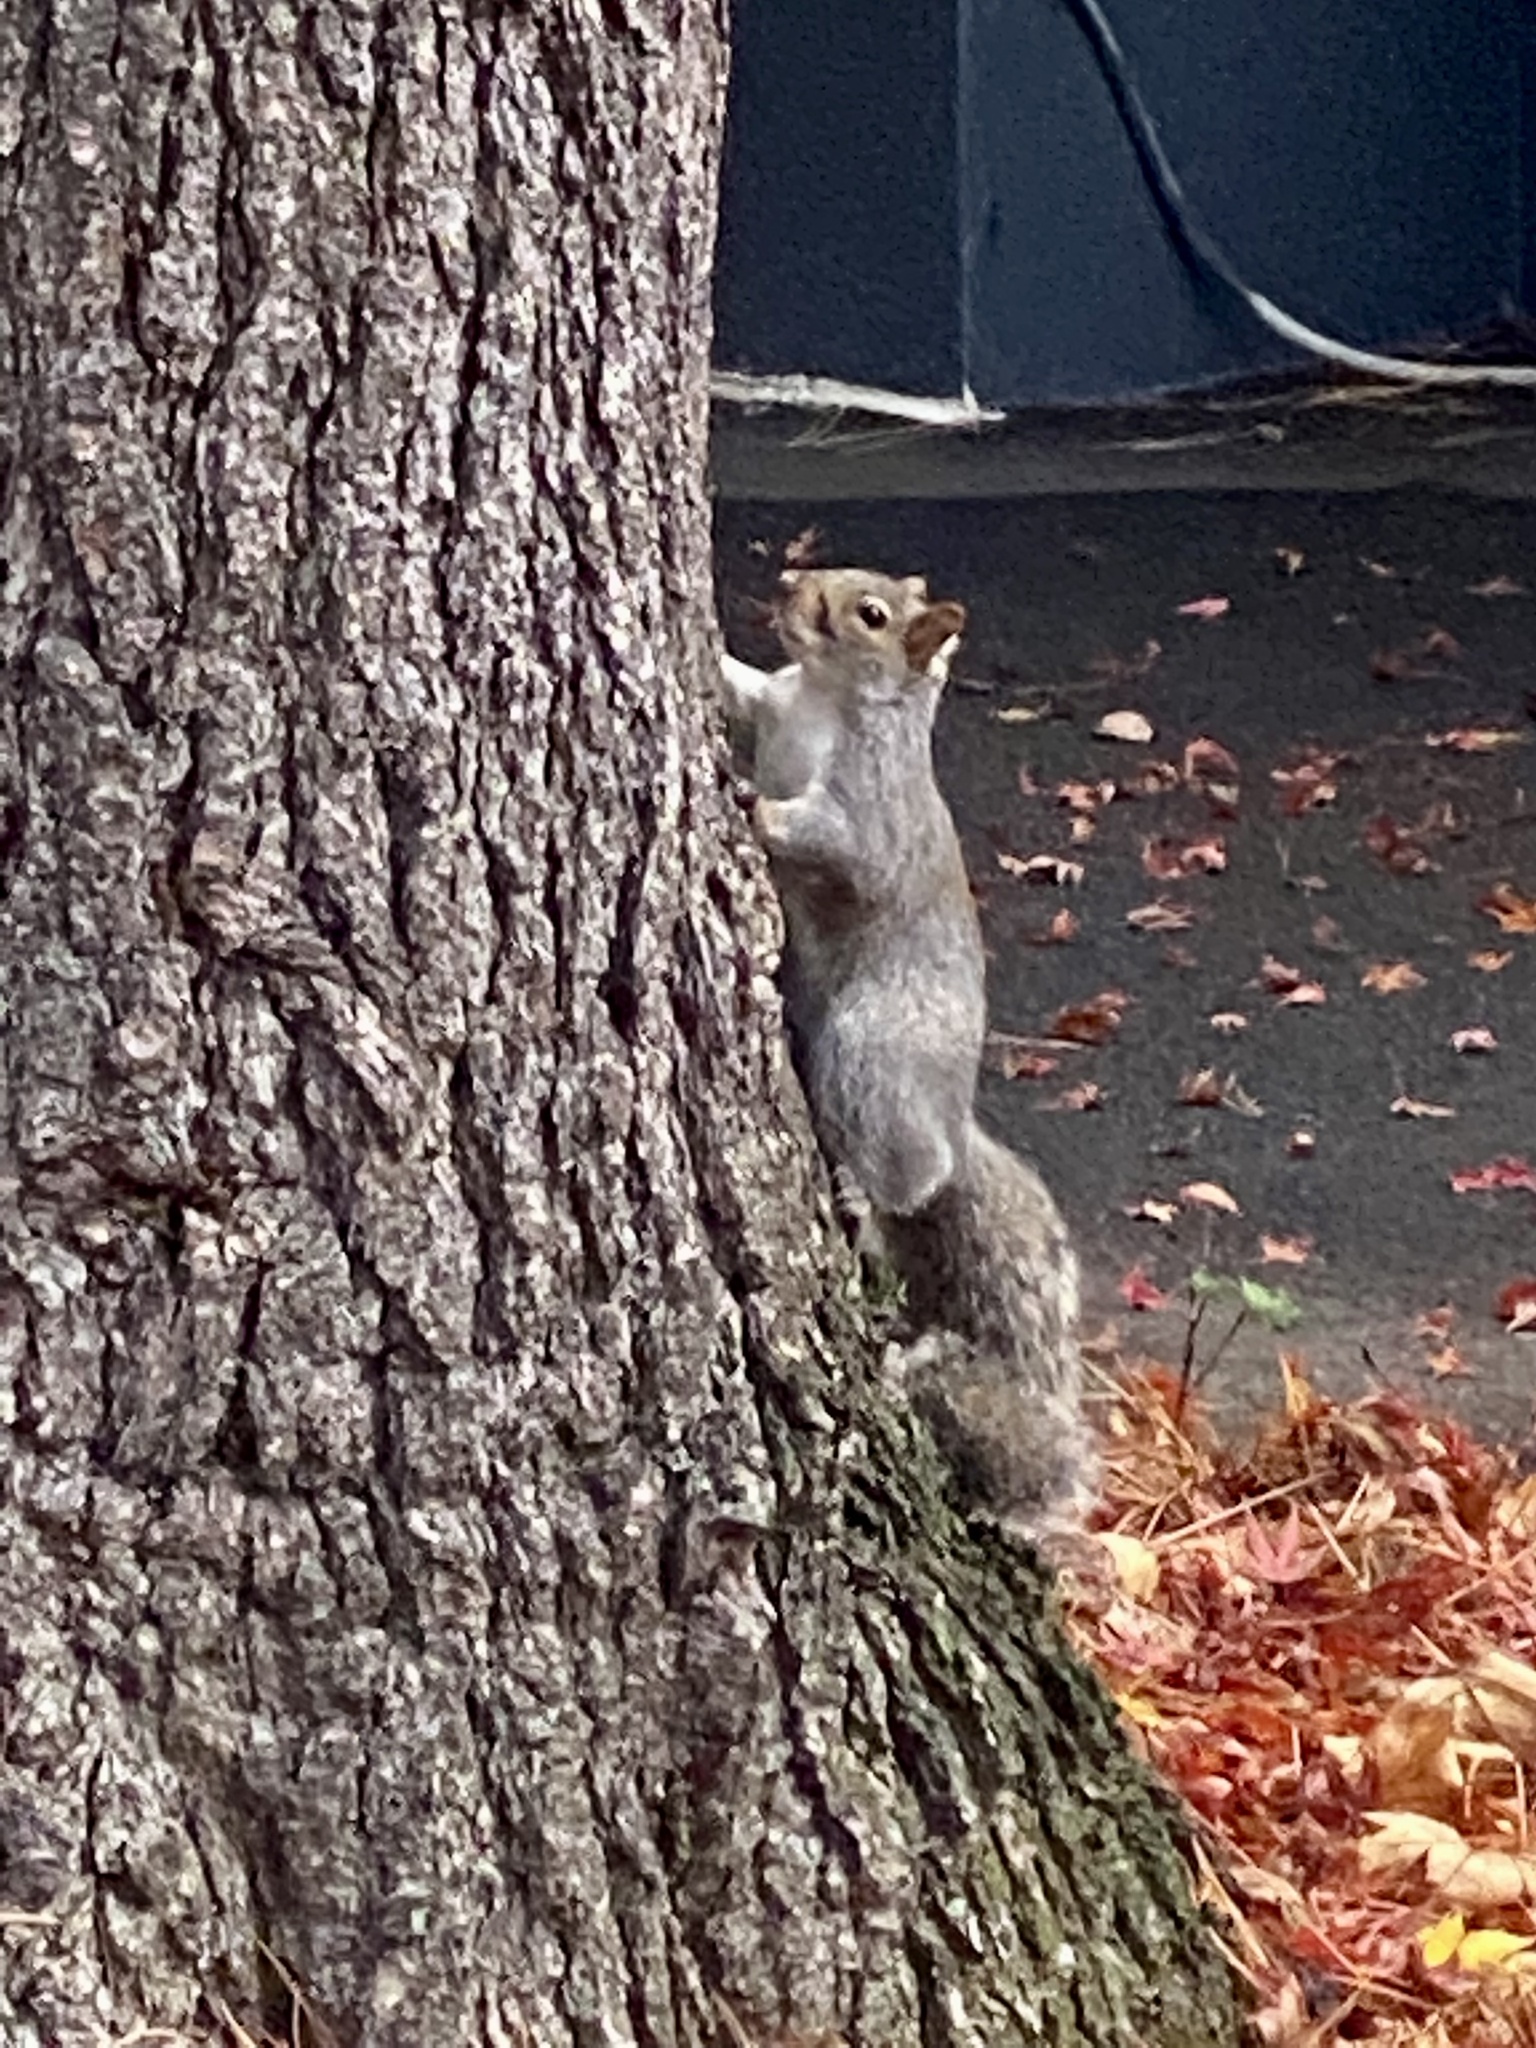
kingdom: Animalia
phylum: Chordata
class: Mammalia
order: Rodentia
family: Sciuridae
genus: Sciurus
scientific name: Sciurus carolinensis
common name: Eastern gray squirrel
